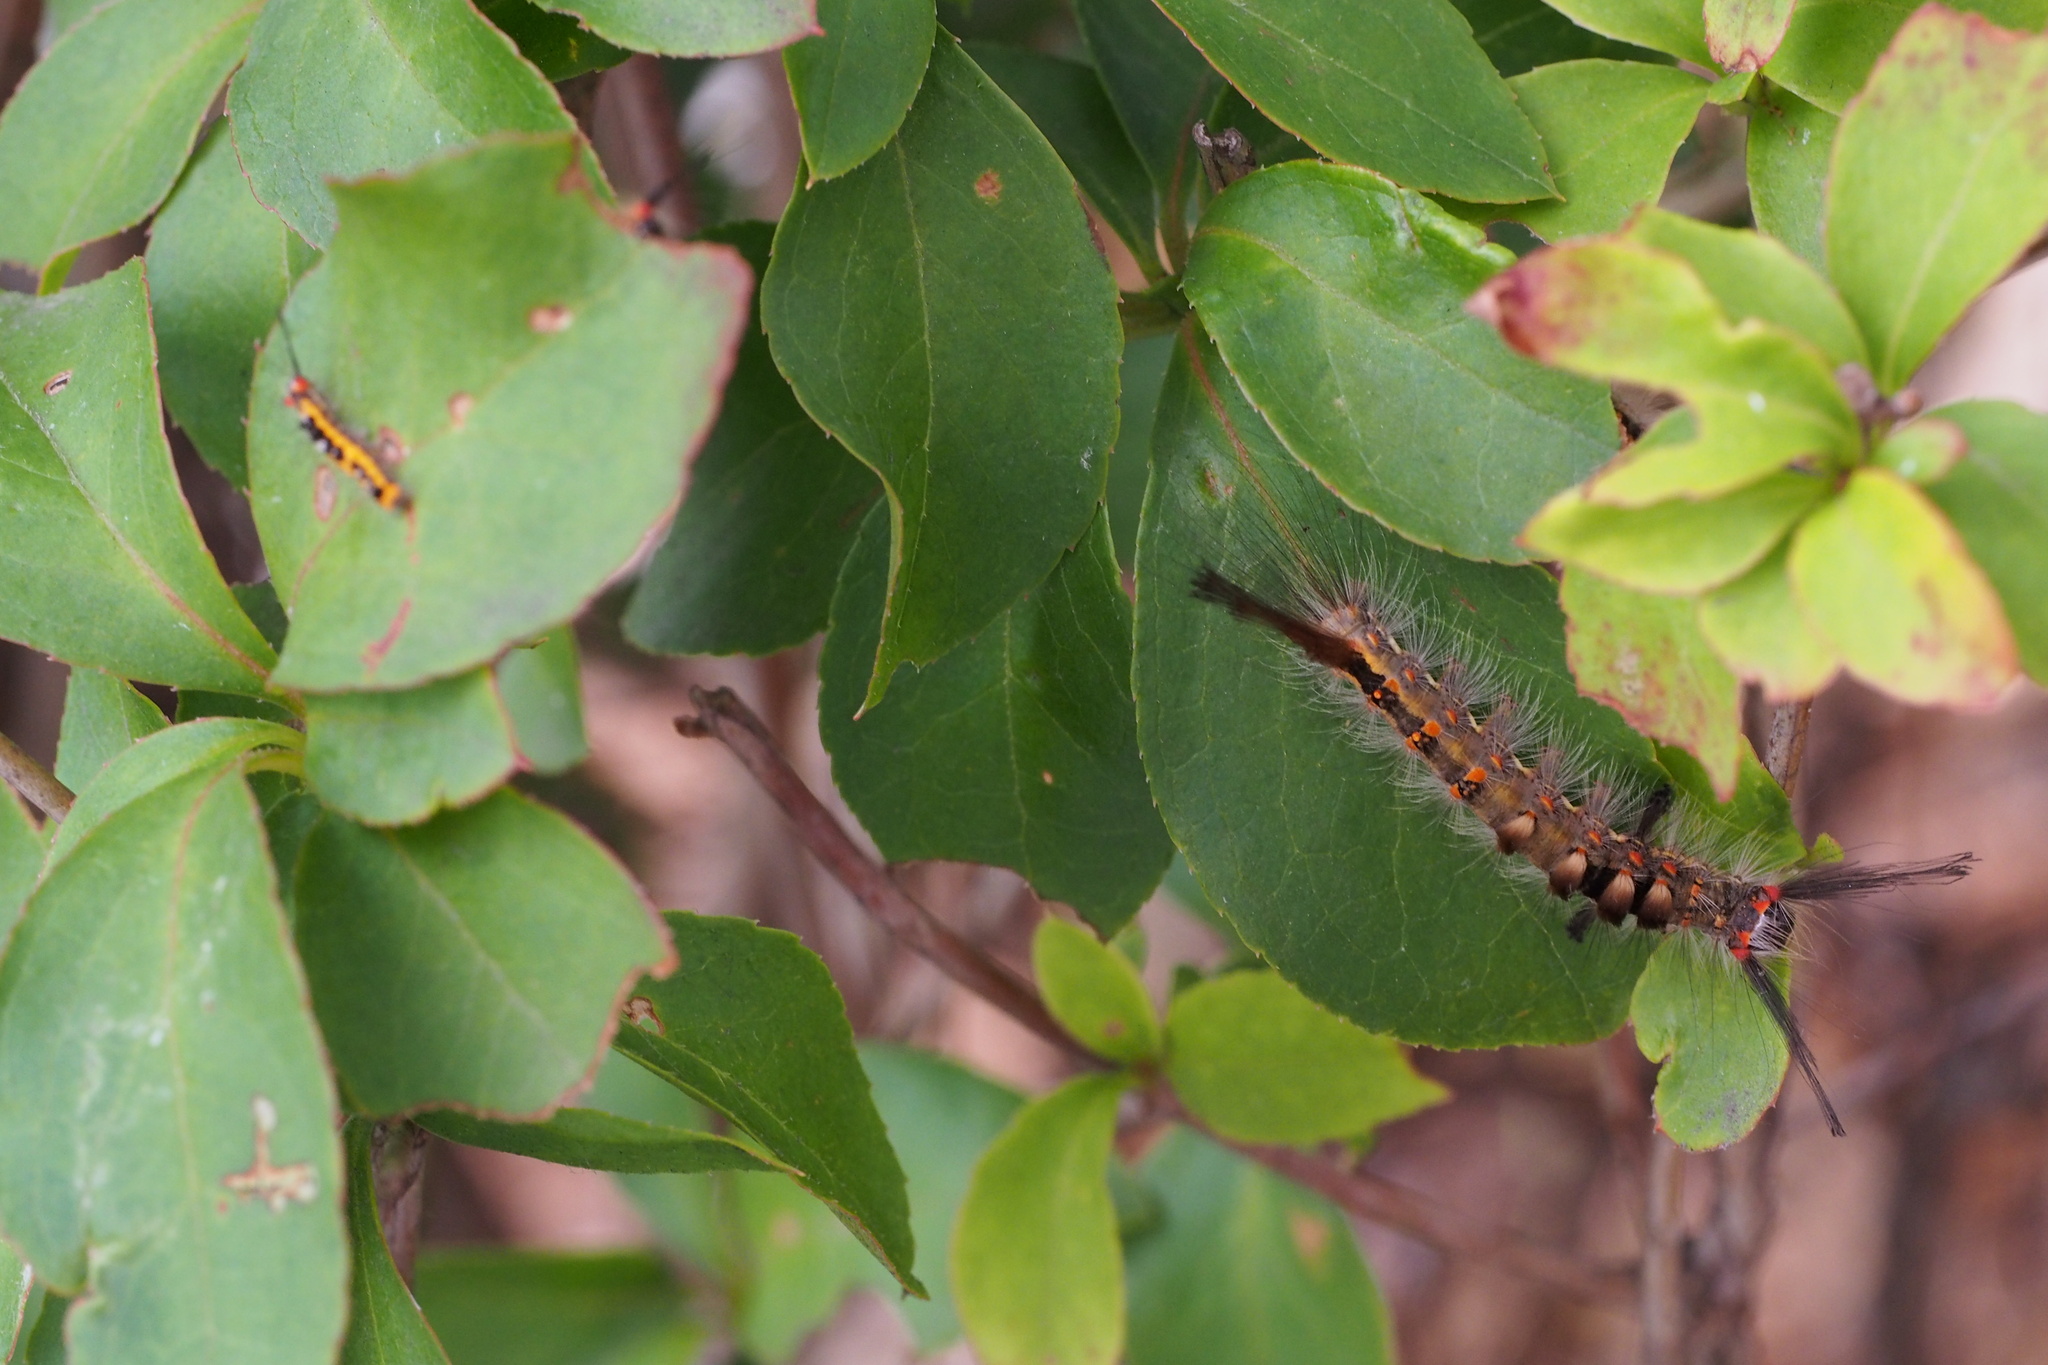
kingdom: Animalia
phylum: Arthropoda
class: Insecta
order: Lepidoptera
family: Erebidae
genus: Orgyia
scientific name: Orgyia thyellina
